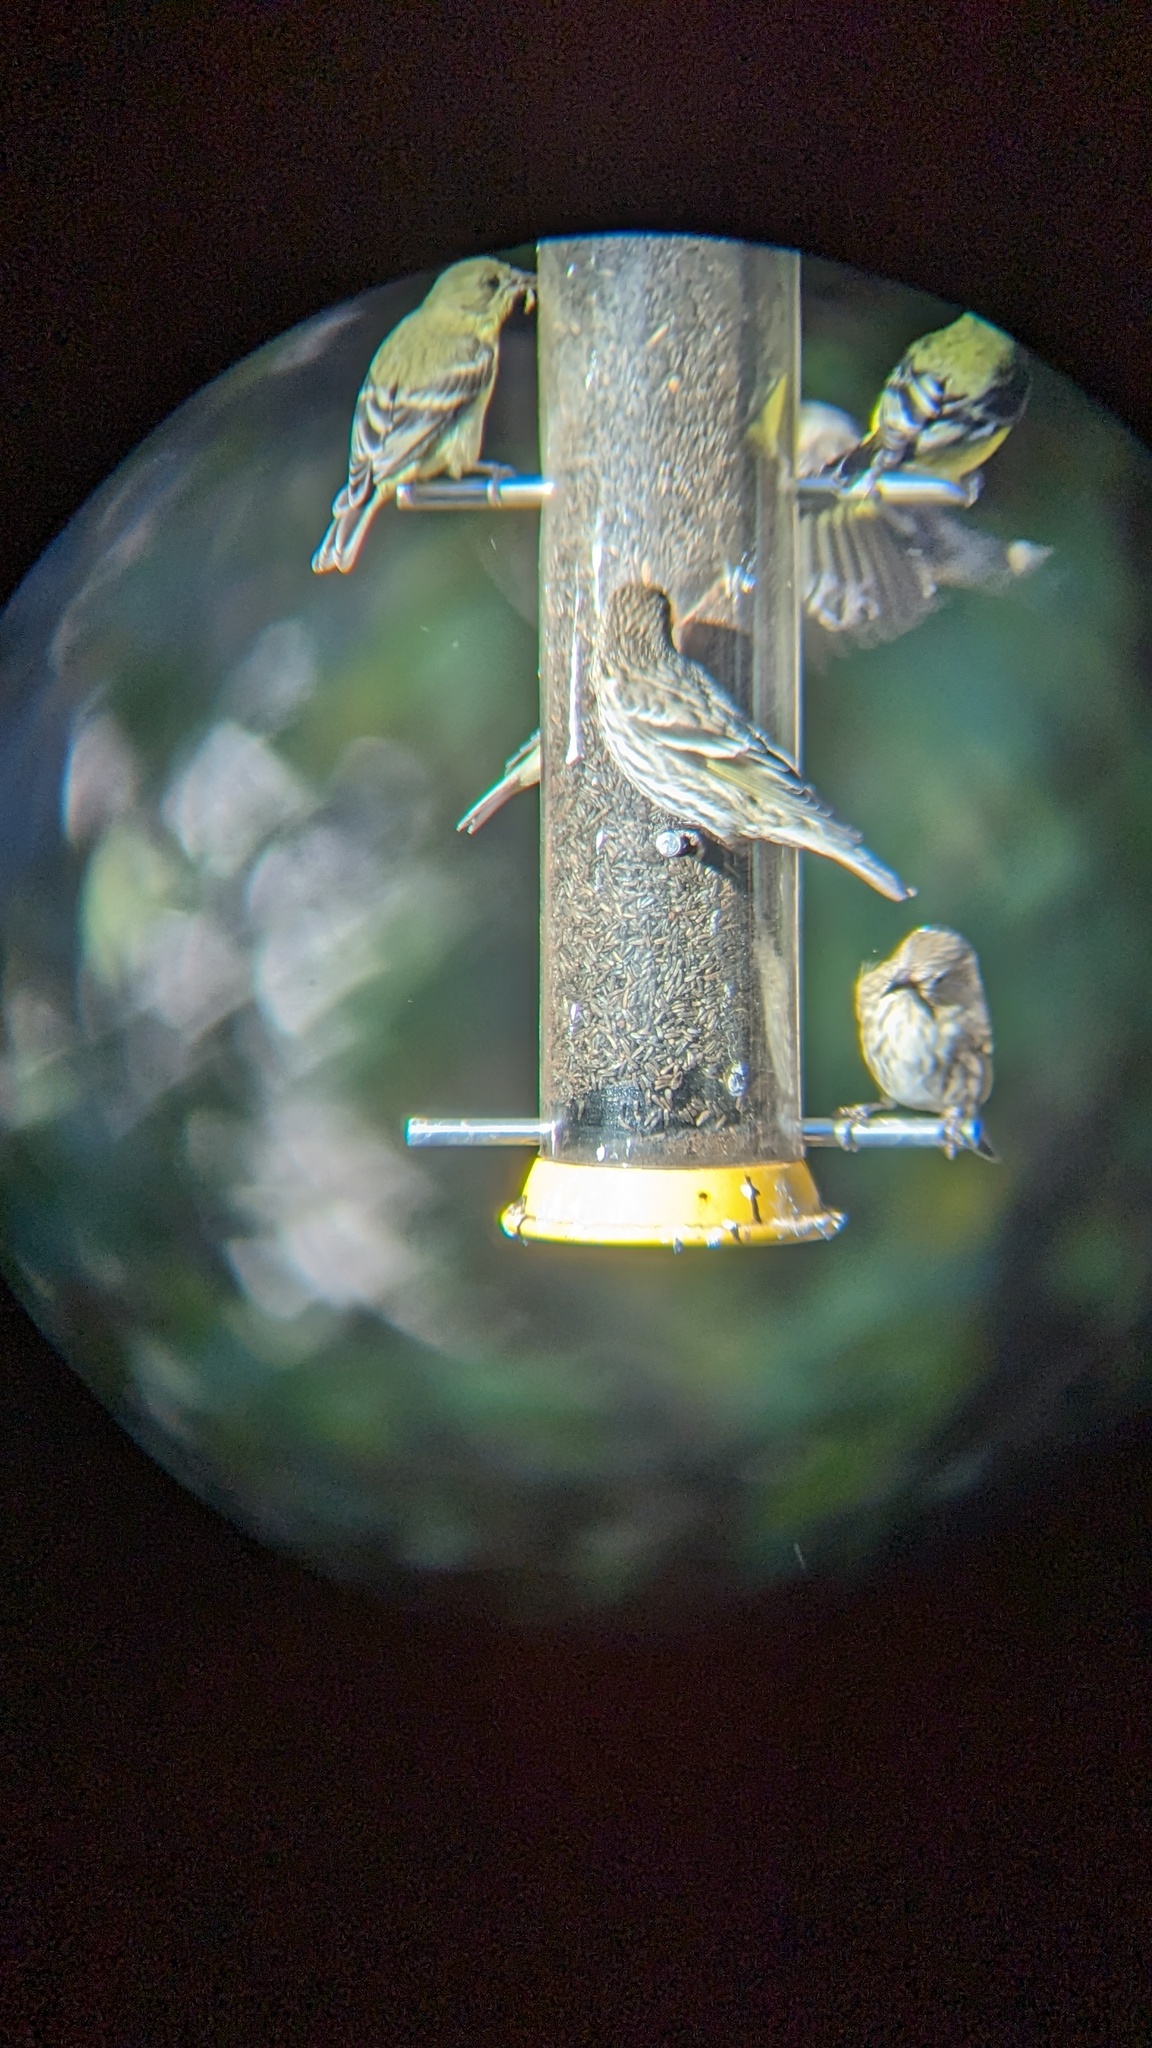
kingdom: Animalia
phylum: Chordata
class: Aves
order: Passeriformes
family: Fringillidae
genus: Spinus
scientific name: Spinus pinus
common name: Pine siskin
